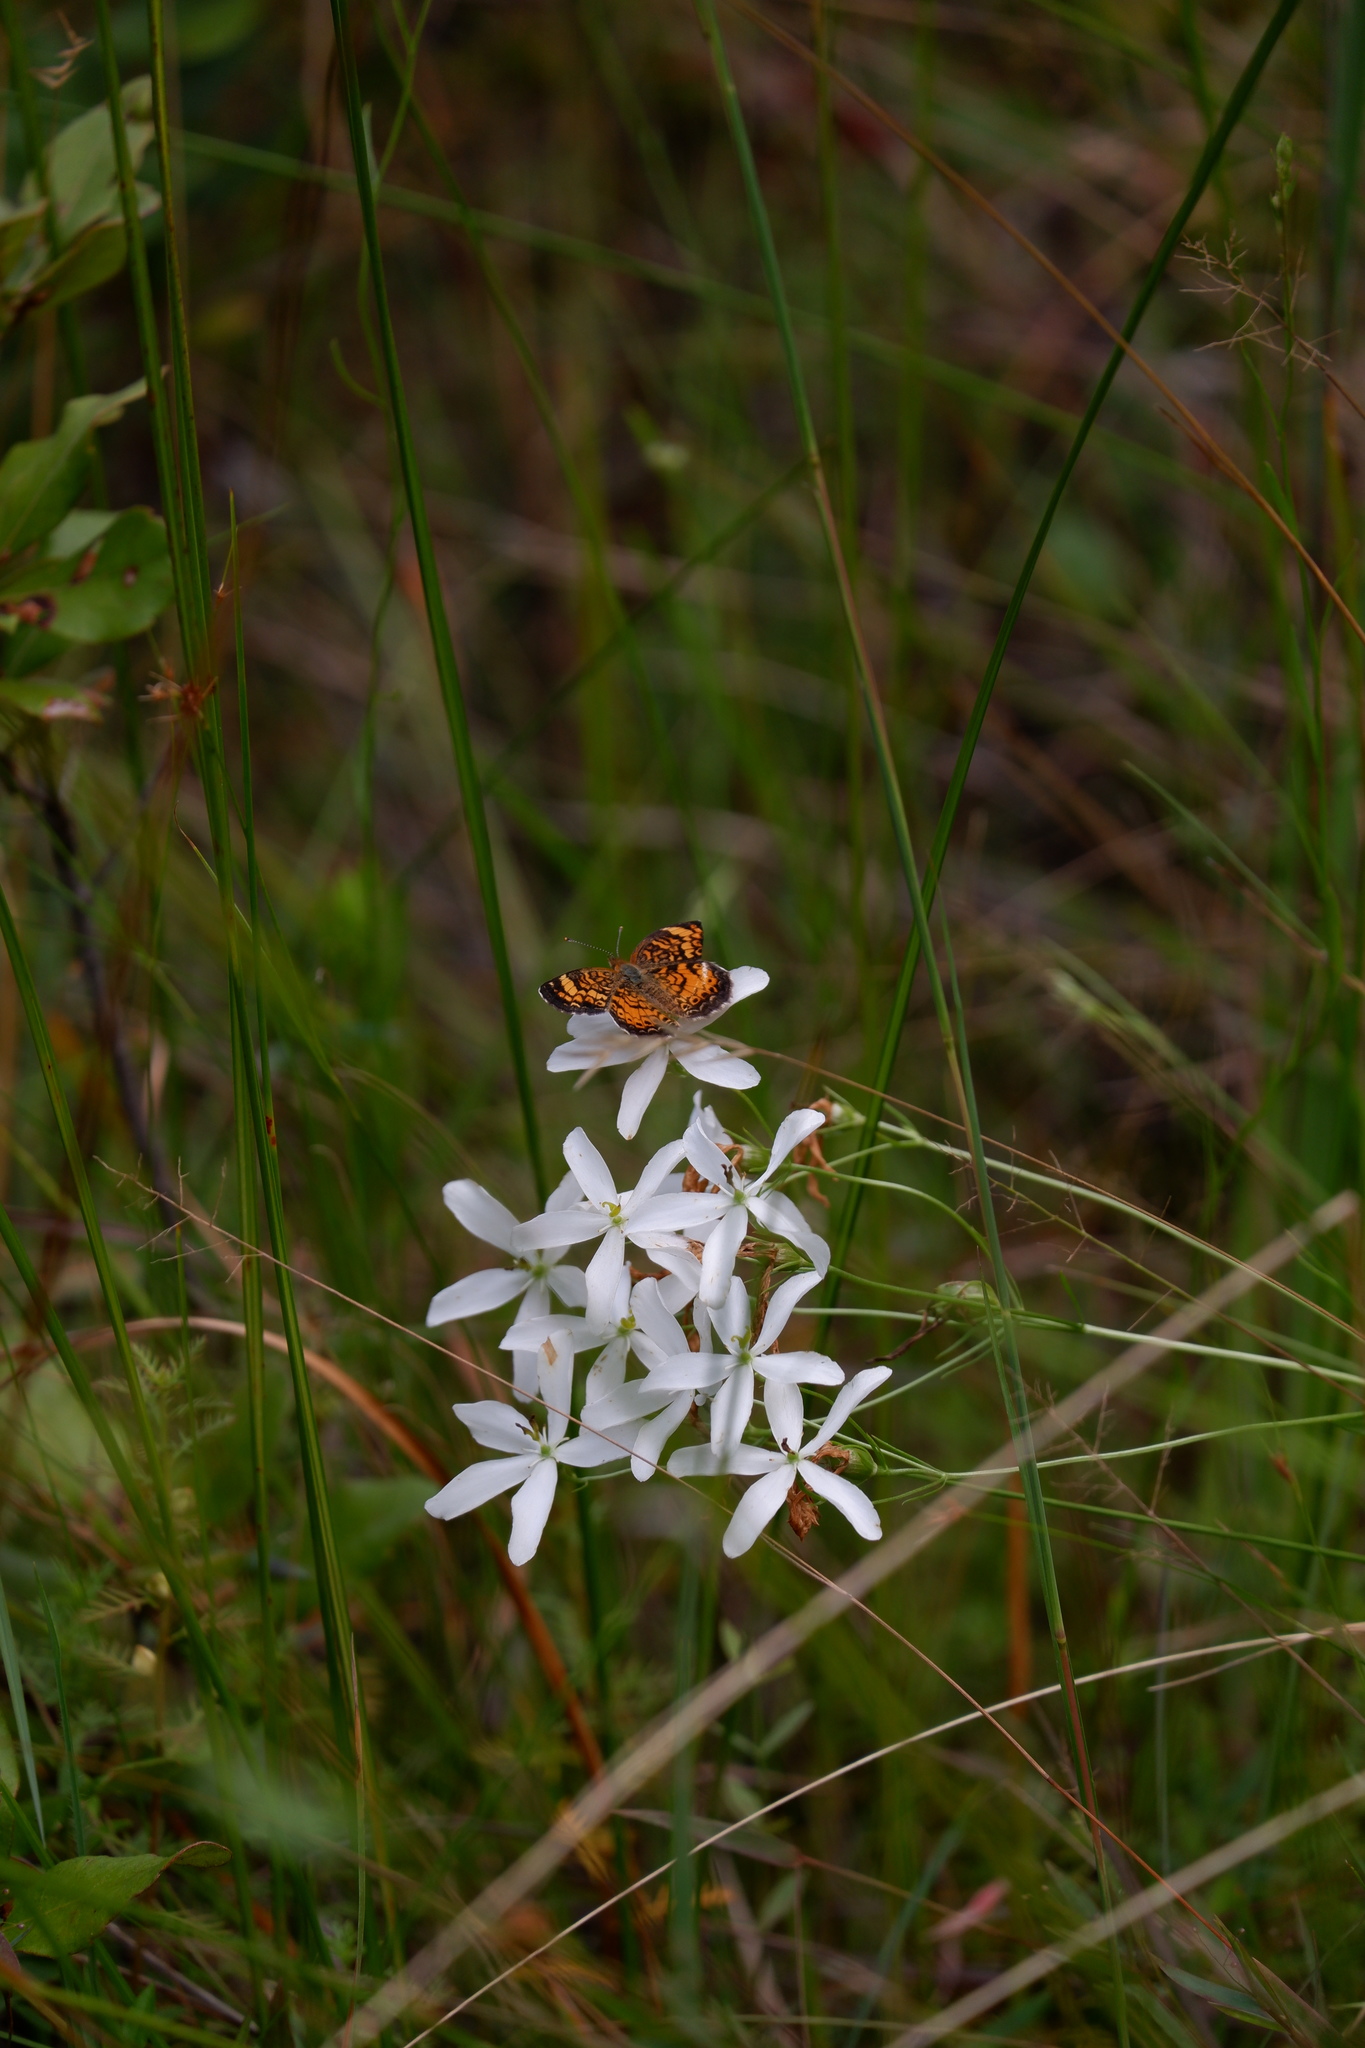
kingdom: Plantae
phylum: Tracheophyta
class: Magnoliopsida
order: Gentianales
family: Gentianaceae
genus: Sabatia
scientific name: Sabatia difformis
